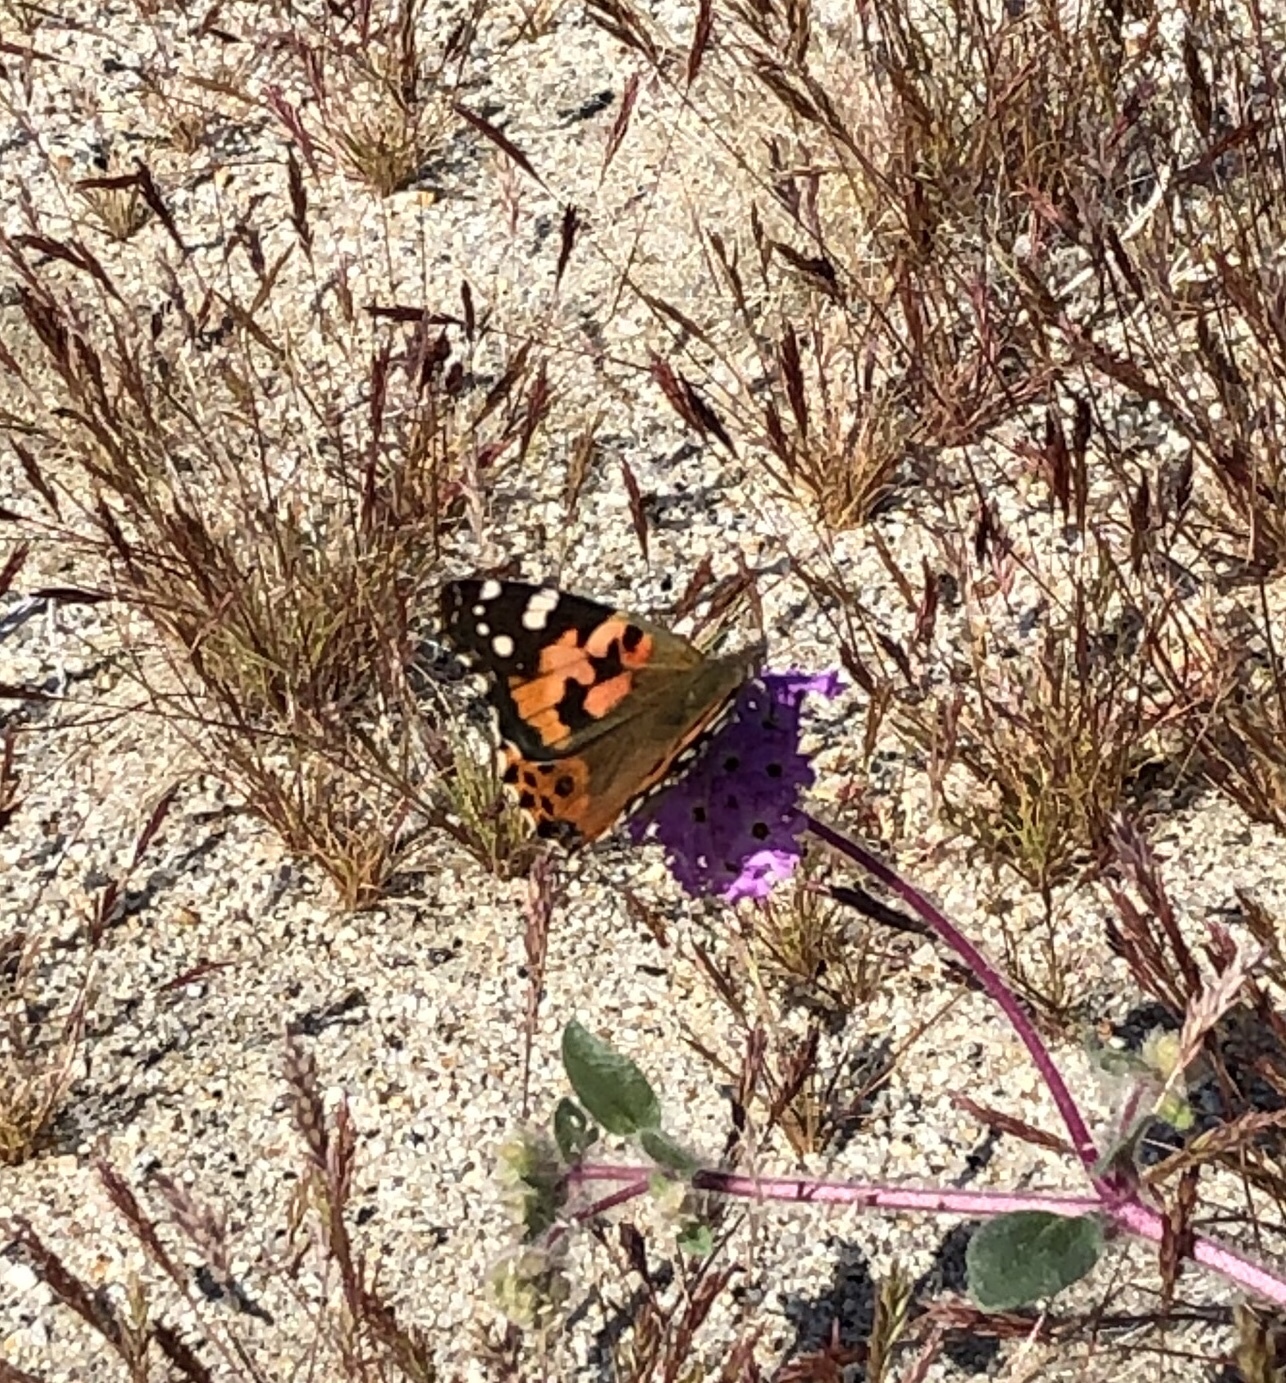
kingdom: Animalia
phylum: Arthropoda
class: Insecta
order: Lepidoptera
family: Nymphalidae
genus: Vanessa
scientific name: Vanessa cardui
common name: Painted lady
